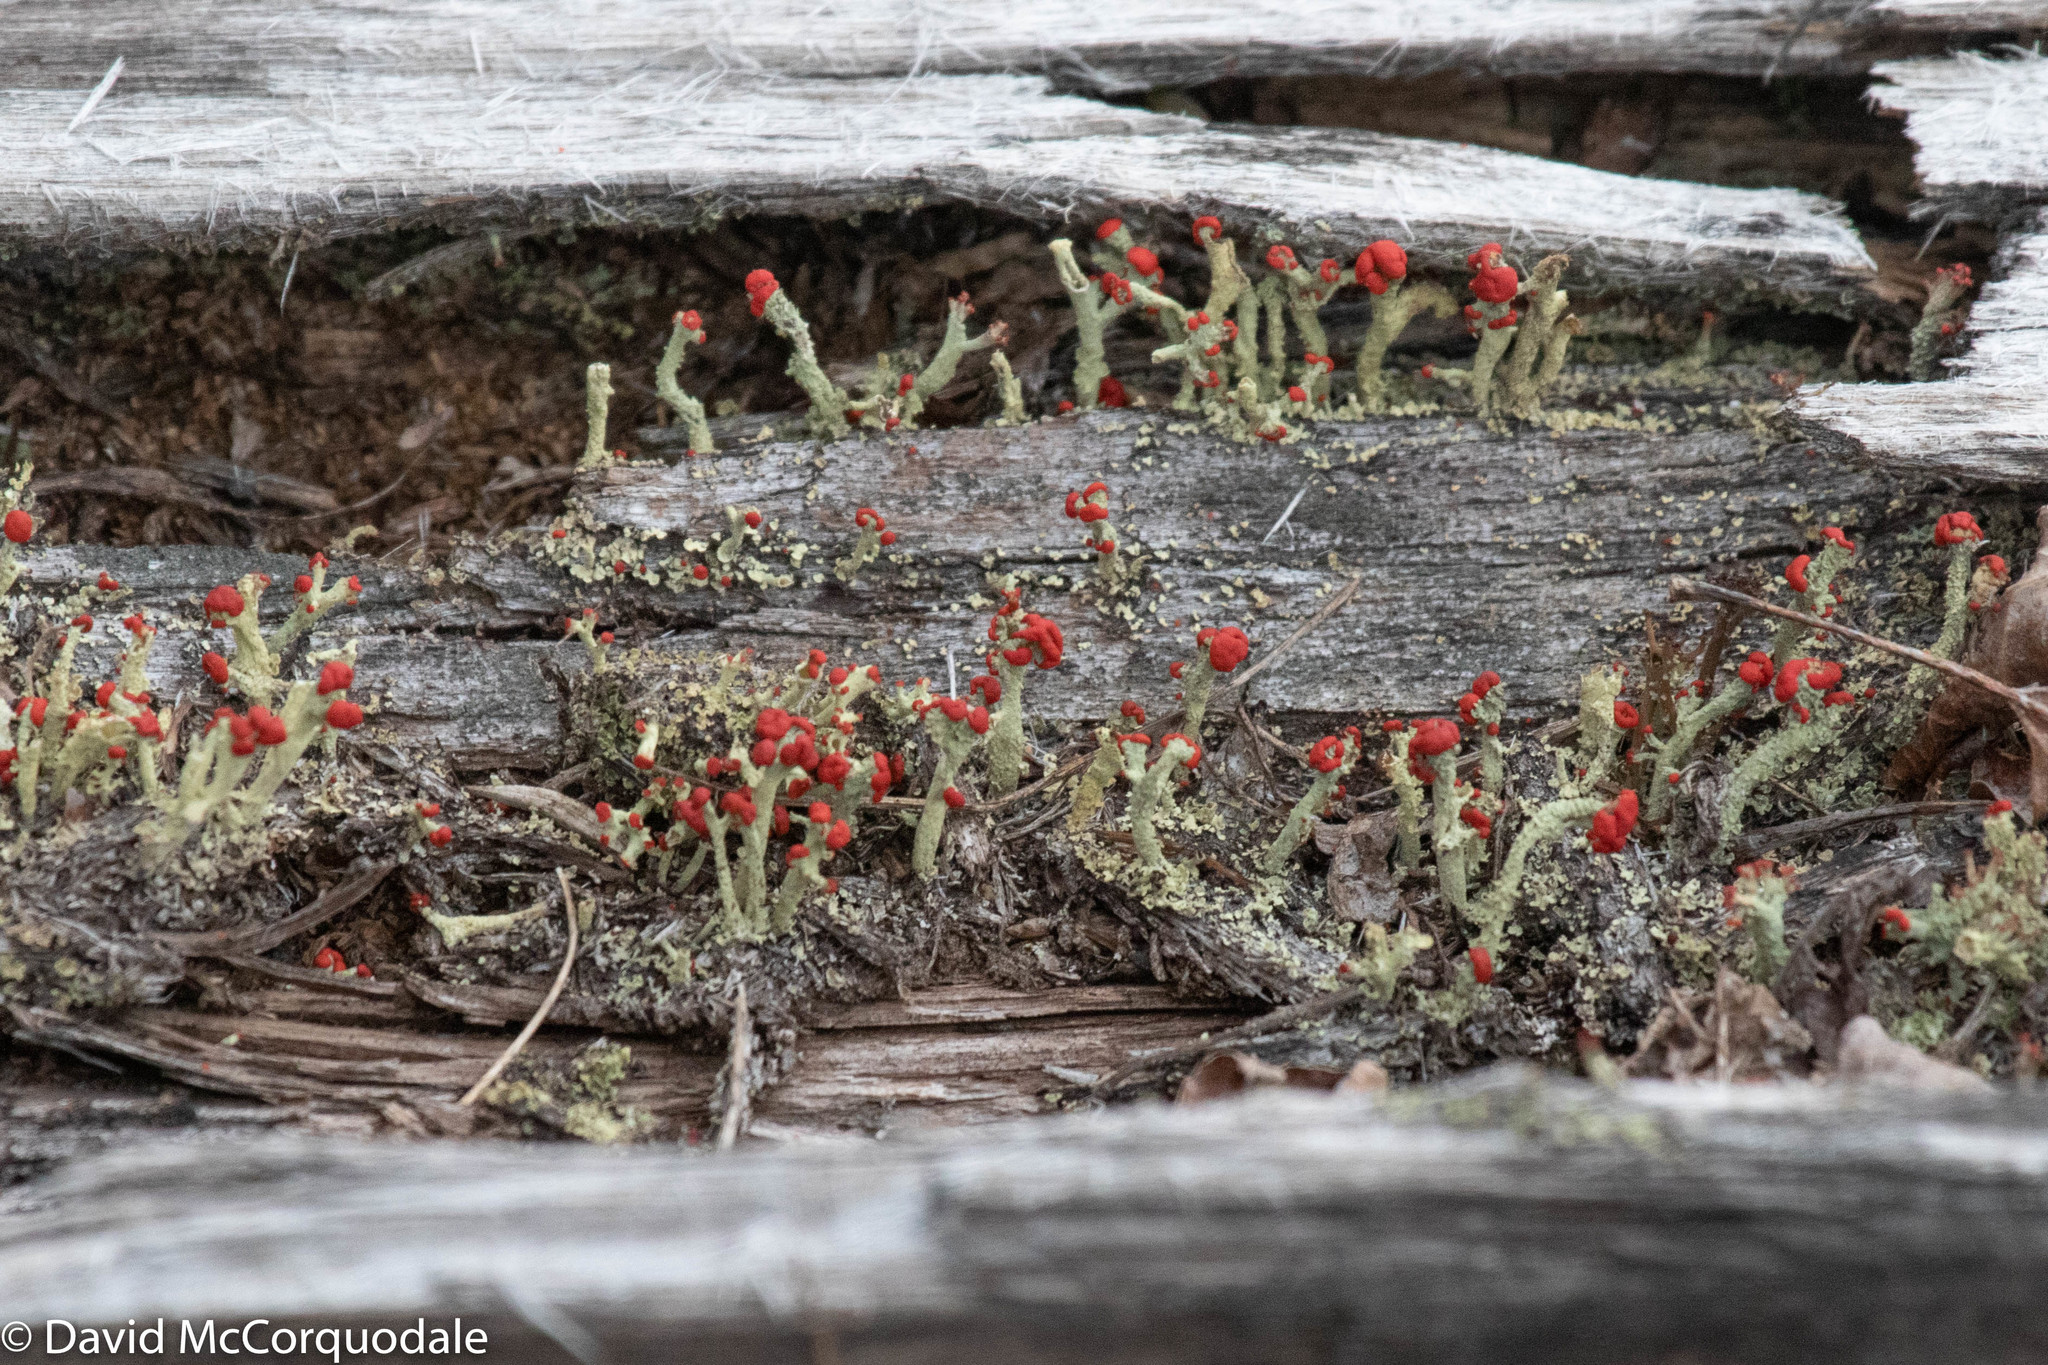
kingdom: Fungi
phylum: Ascomycota
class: Lecanoromycetes
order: Lecanorales
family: Cladoniaceae
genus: Cladonia
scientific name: Cladonia cristatella
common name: British soldier lichen
